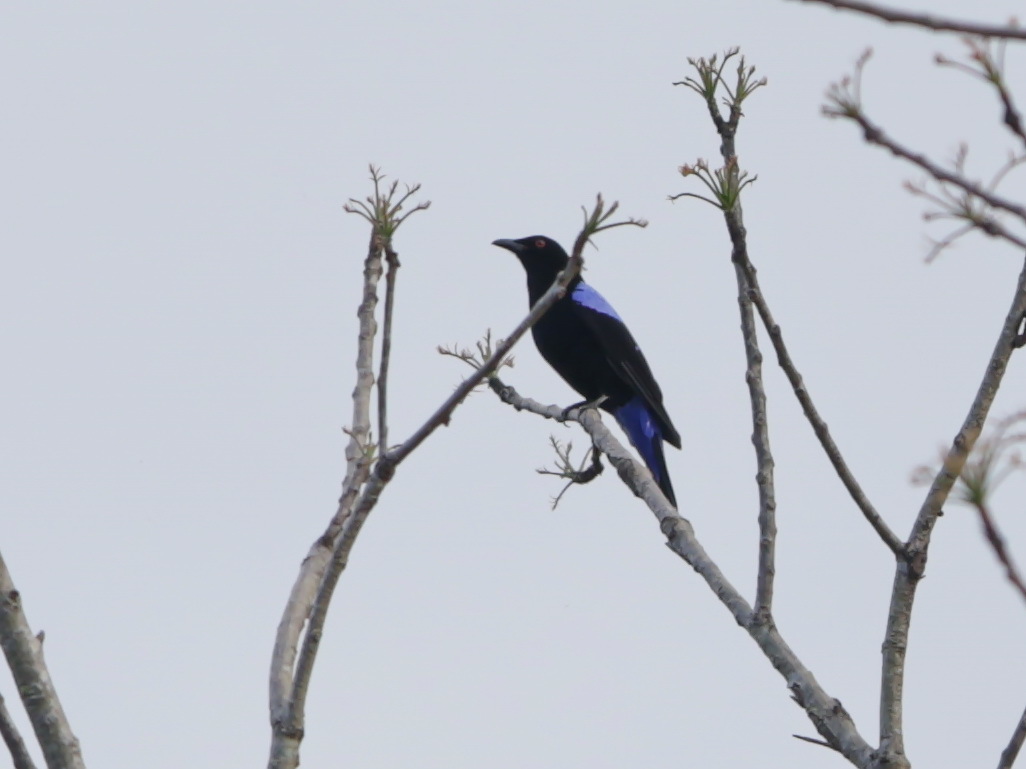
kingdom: Animalia
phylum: Chordata
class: Aves
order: Passeriformes
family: Irenidae
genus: Irena
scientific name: Irena puella
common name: Asian fairy-bluebird
